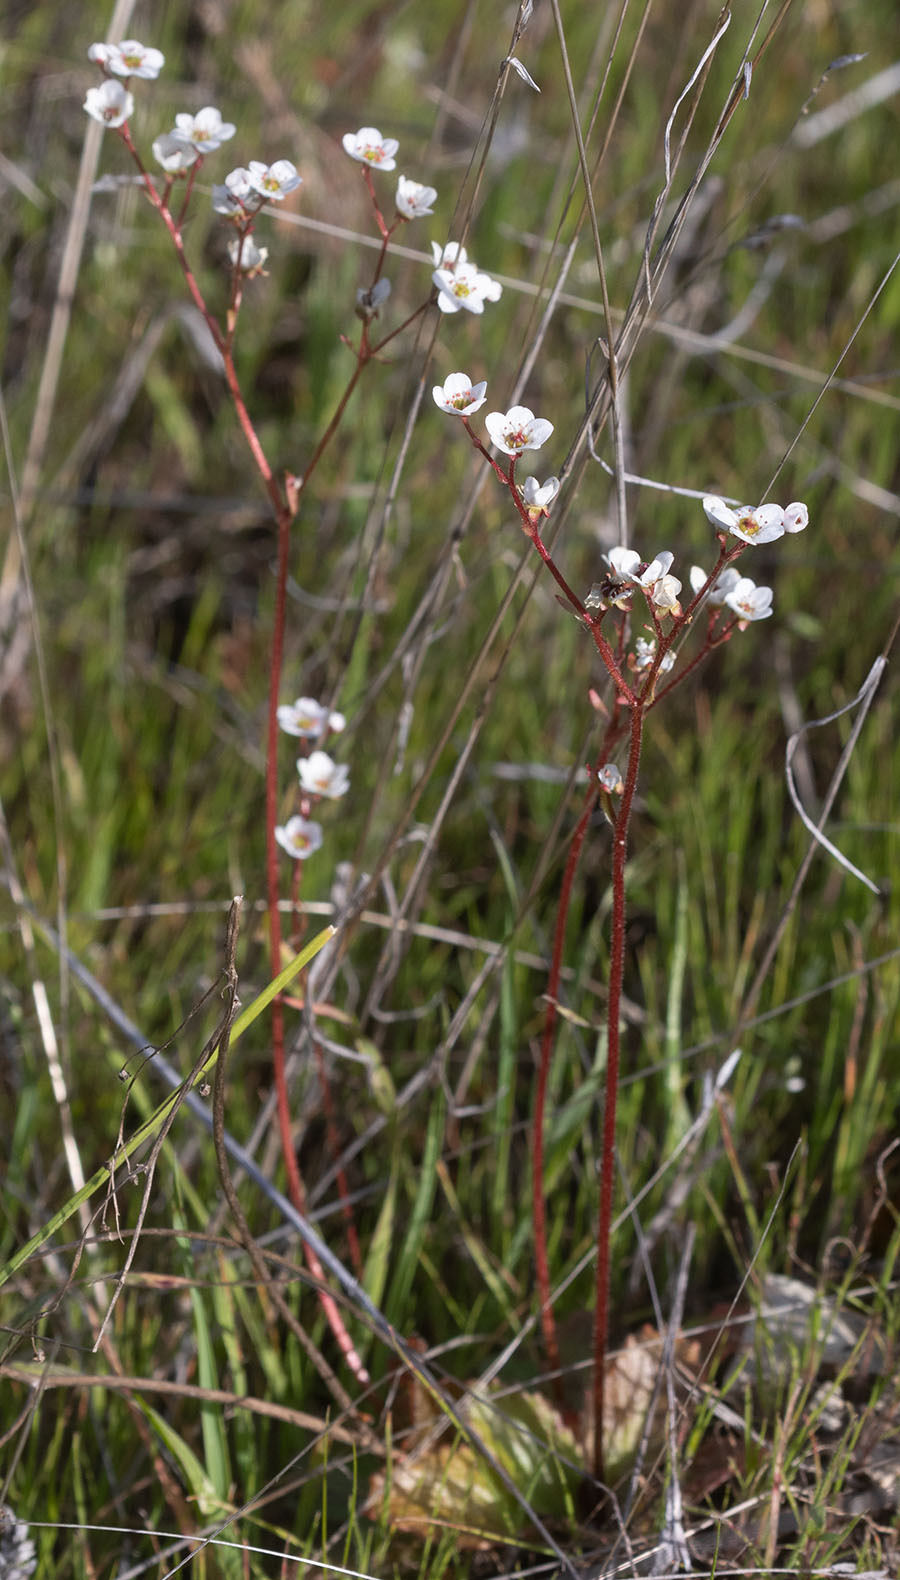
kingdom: Plantae
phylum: Tracheophyta
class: Magnoliopsida
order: Saxifragales
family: Saxifragaceae
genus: Micranthes
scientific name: Micranthes californica
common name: California saxifrage
